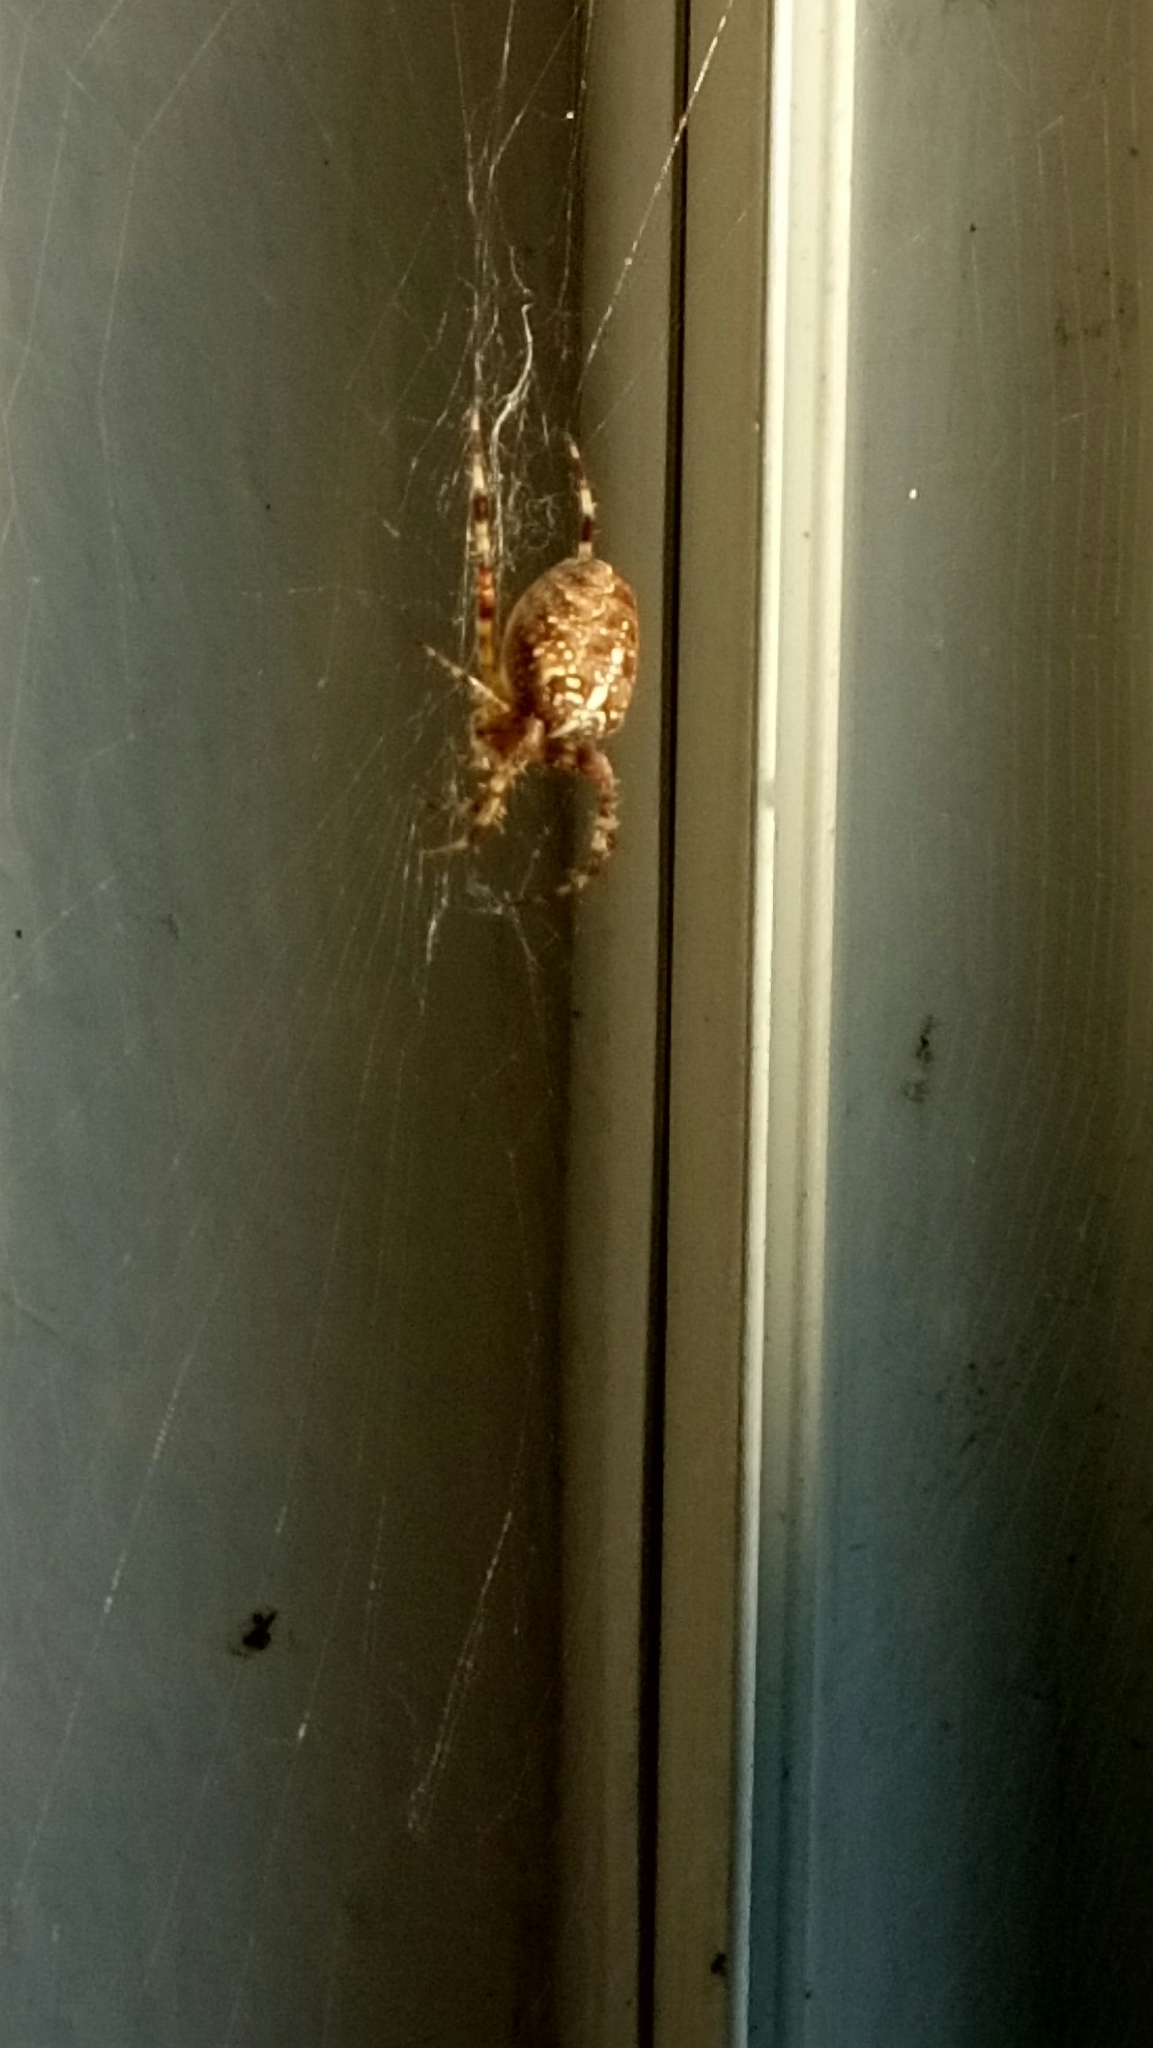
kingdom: Animalia
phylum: Arthropoda
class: Arachnida
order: Araneae
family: Araneidae
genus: Araneus
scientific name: Araneus diadematus
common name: Cross orbweaver
